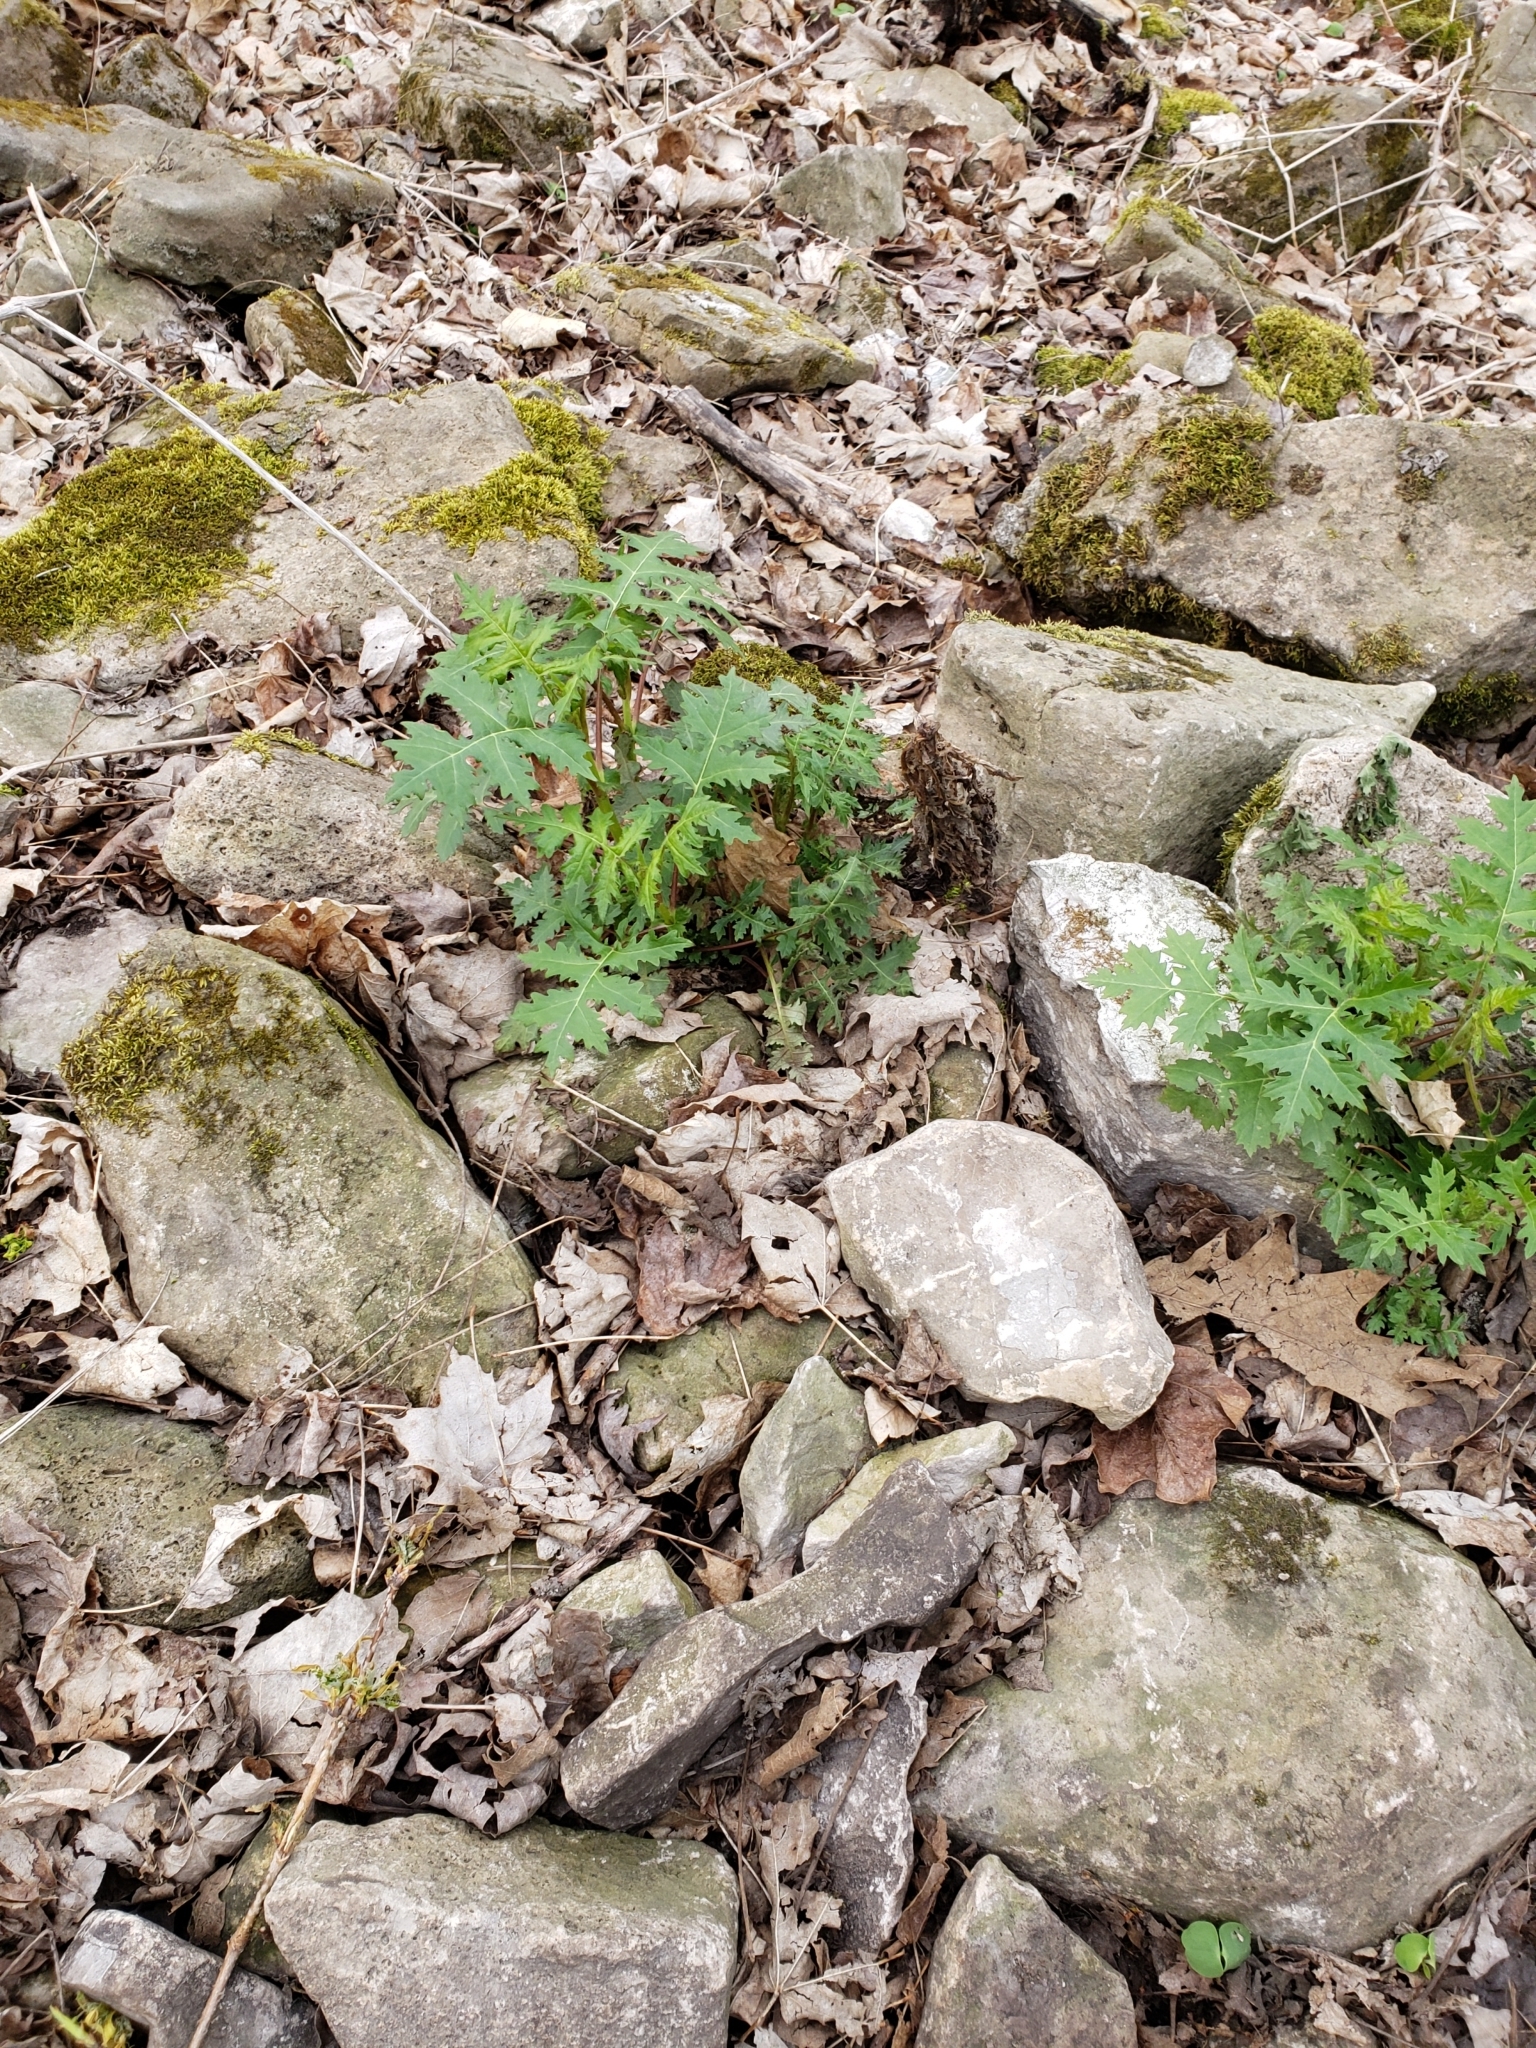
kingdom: Plantae
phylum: Tracheophyta
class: Magnoliopsida
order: Asterales
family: Asteraceae
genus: Polymnia
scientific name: Polymnia canadensis
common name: Pale-flowered leafcup
